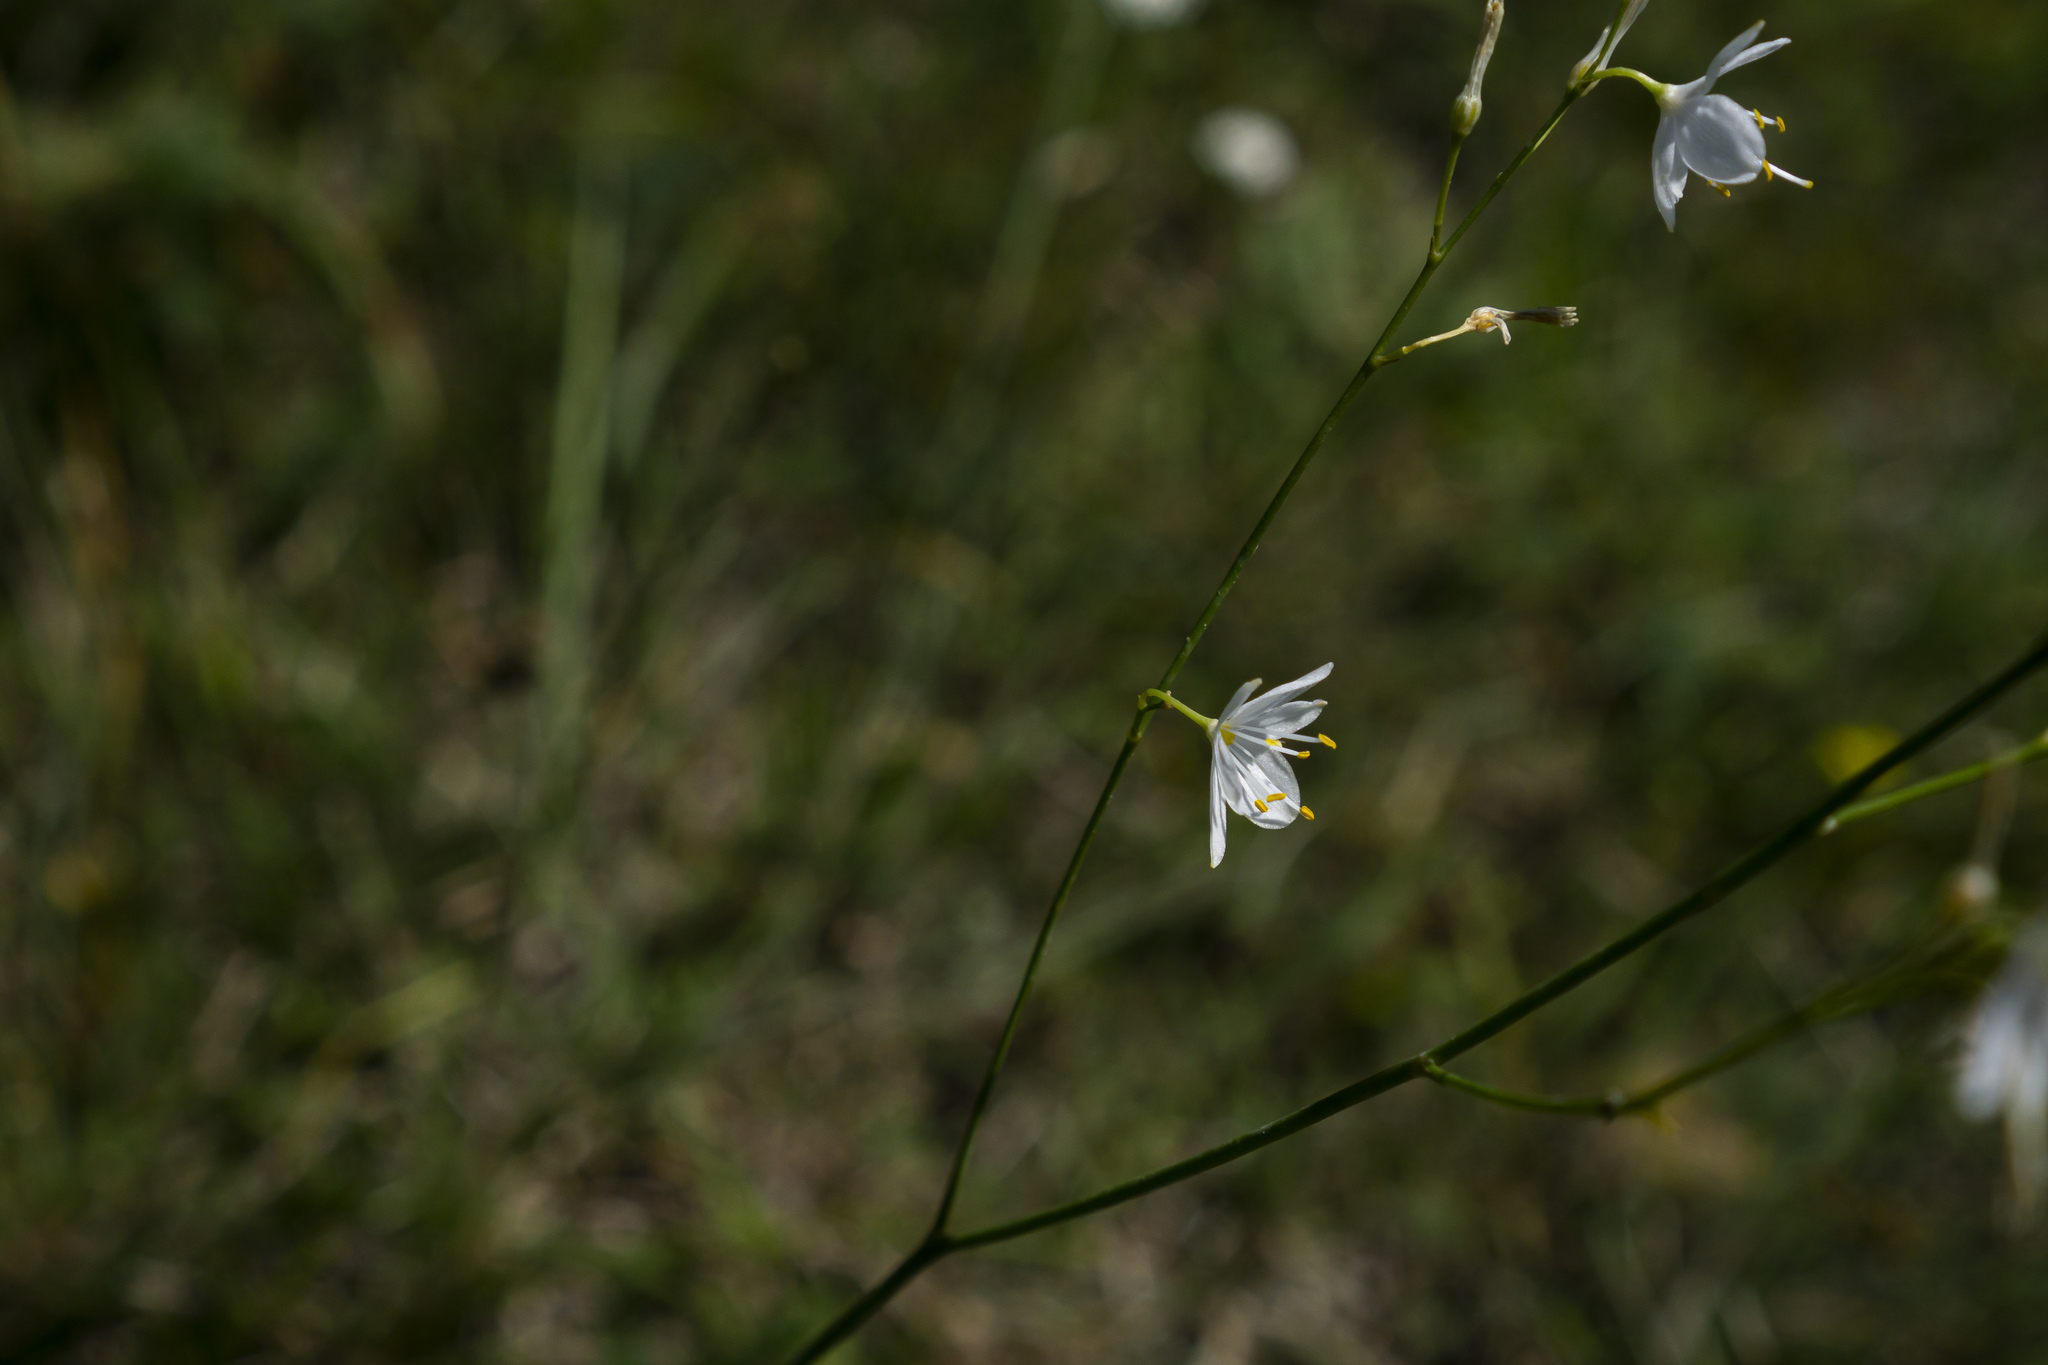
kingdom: Plantae
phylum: Tracheophyta
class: Liliopsida
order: Asparagales
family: Asparagaceae
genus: Anthericum
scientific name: Anthericum ramosum
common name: Branched st. bernard's-lily
